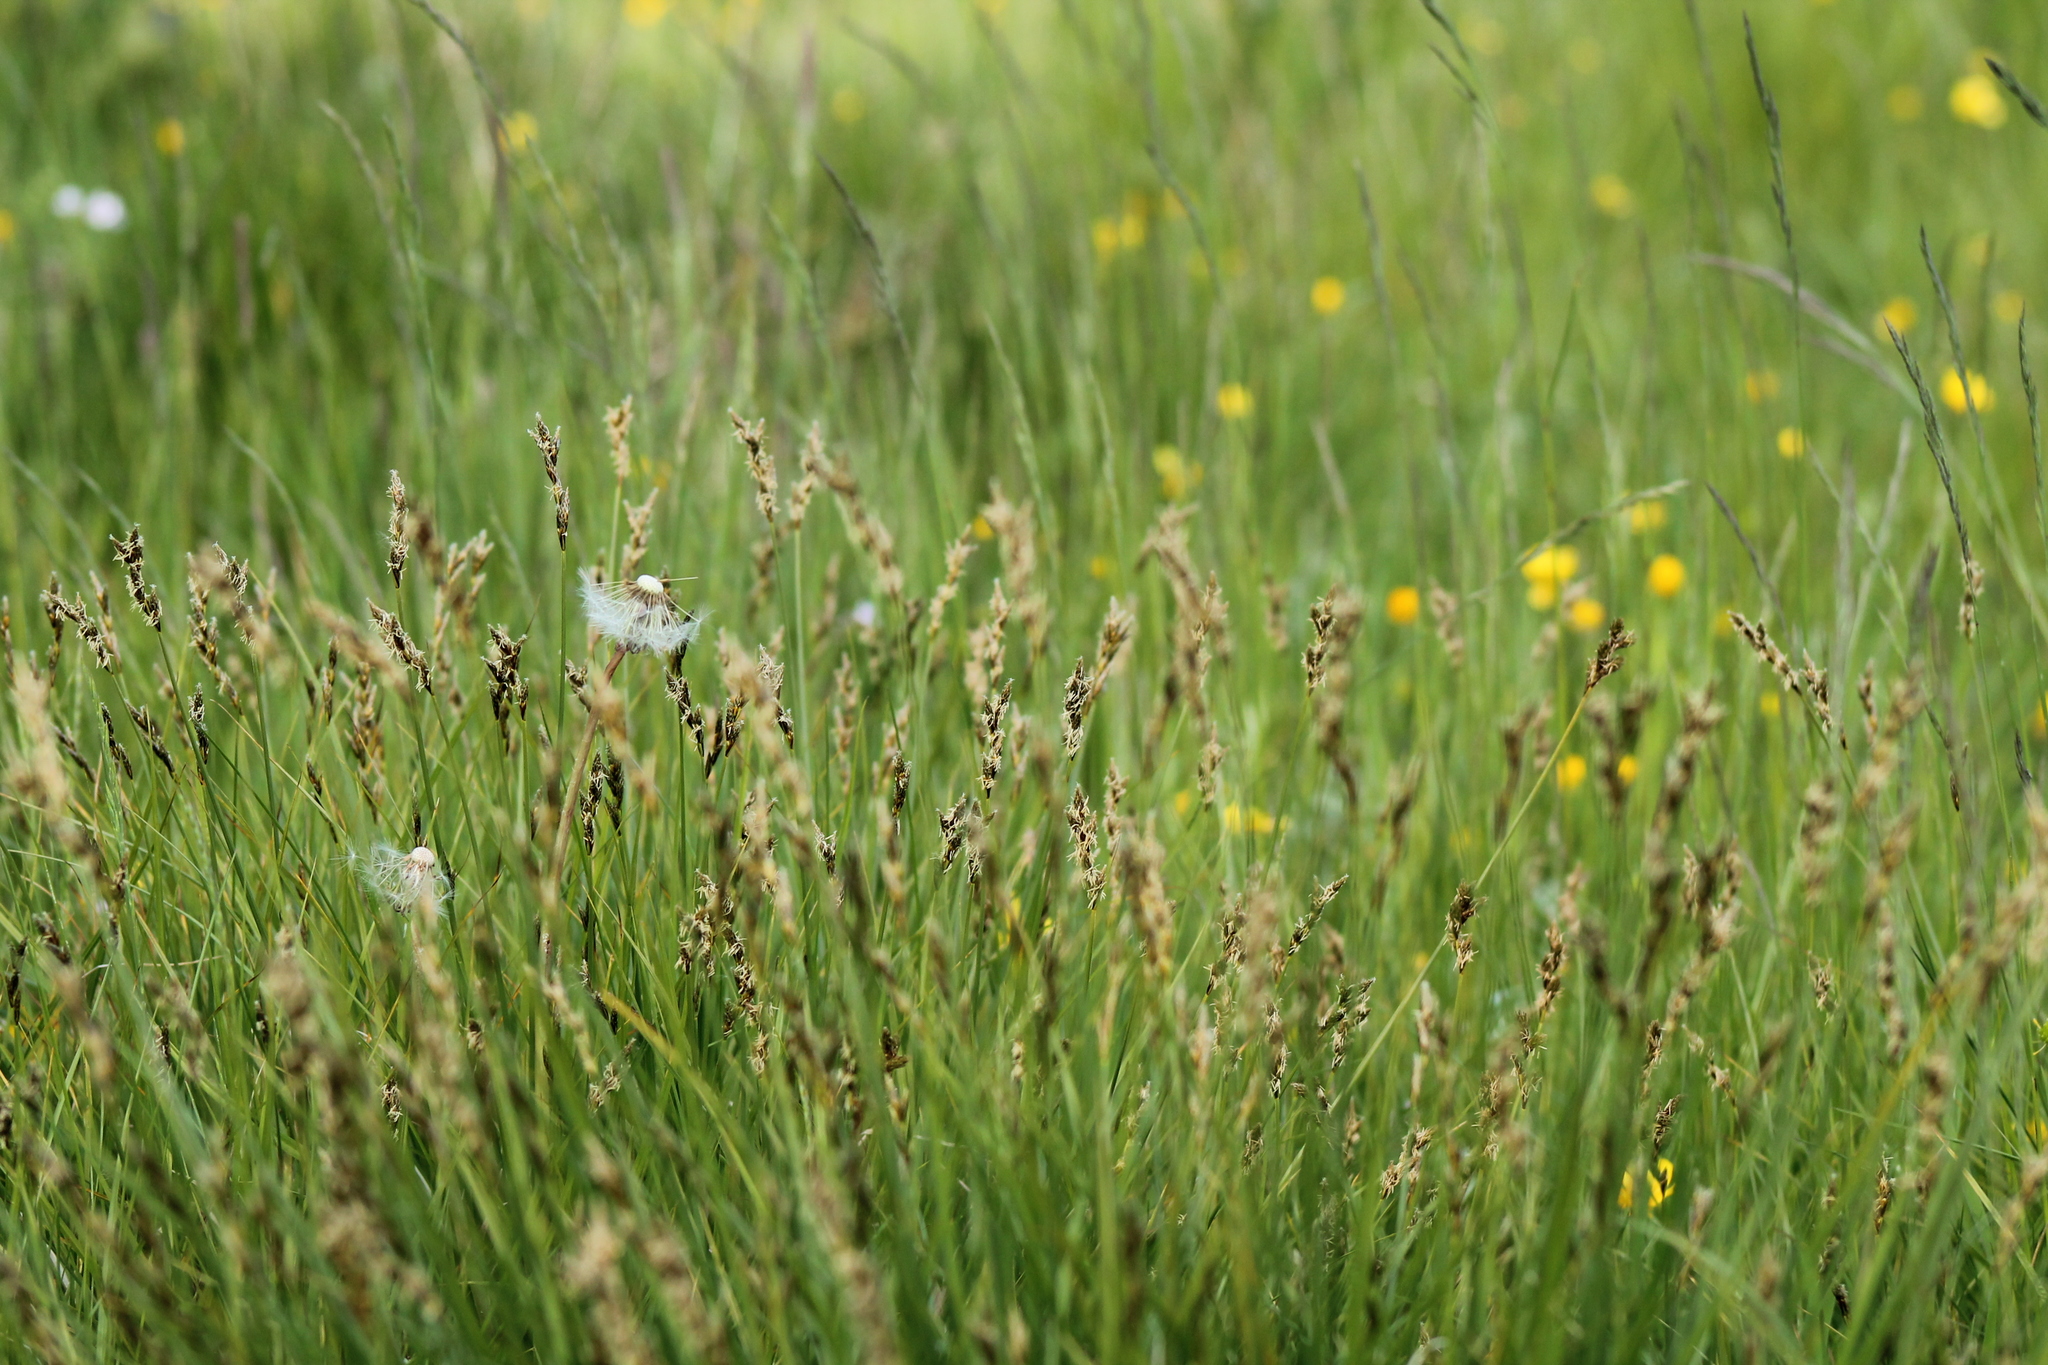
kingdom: Plantae
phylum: Tracheophyta
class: Liliopsida
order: Poales
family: Cyperaceae
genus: Carex
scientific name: Carex disticha
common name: Brown sedge
